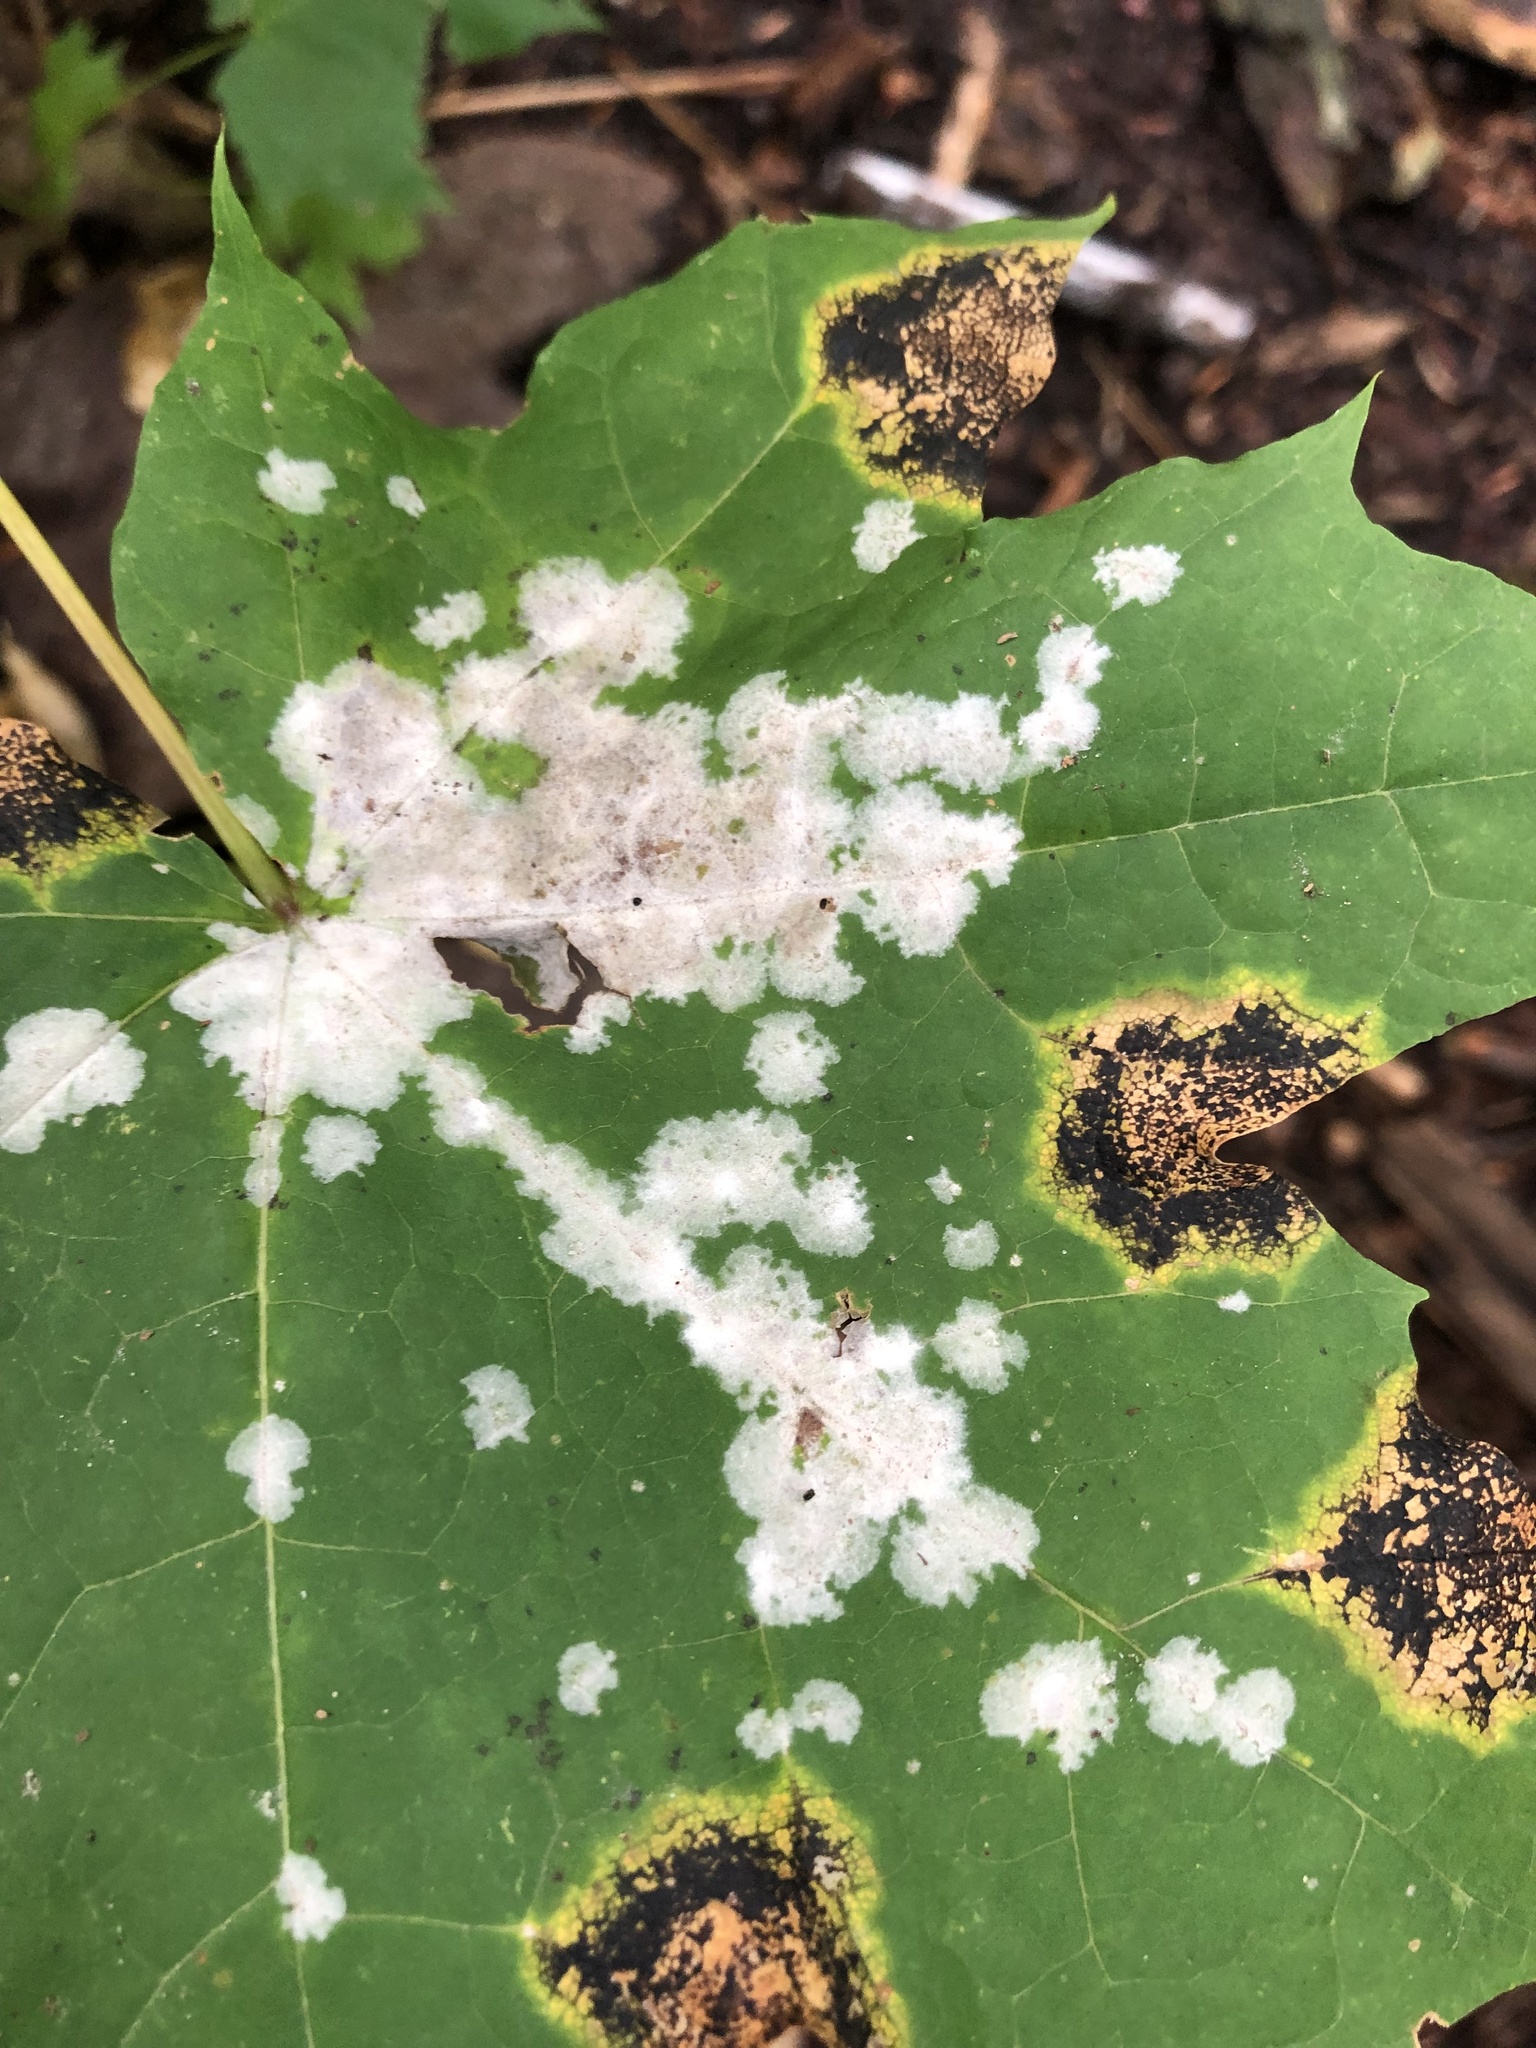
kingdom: Fungi
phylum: Ascomycota
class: Leotiomycetes
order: Helotiales
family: Erysiphaceae
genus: Sawadaea
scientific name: Sawadaea tulasnei
